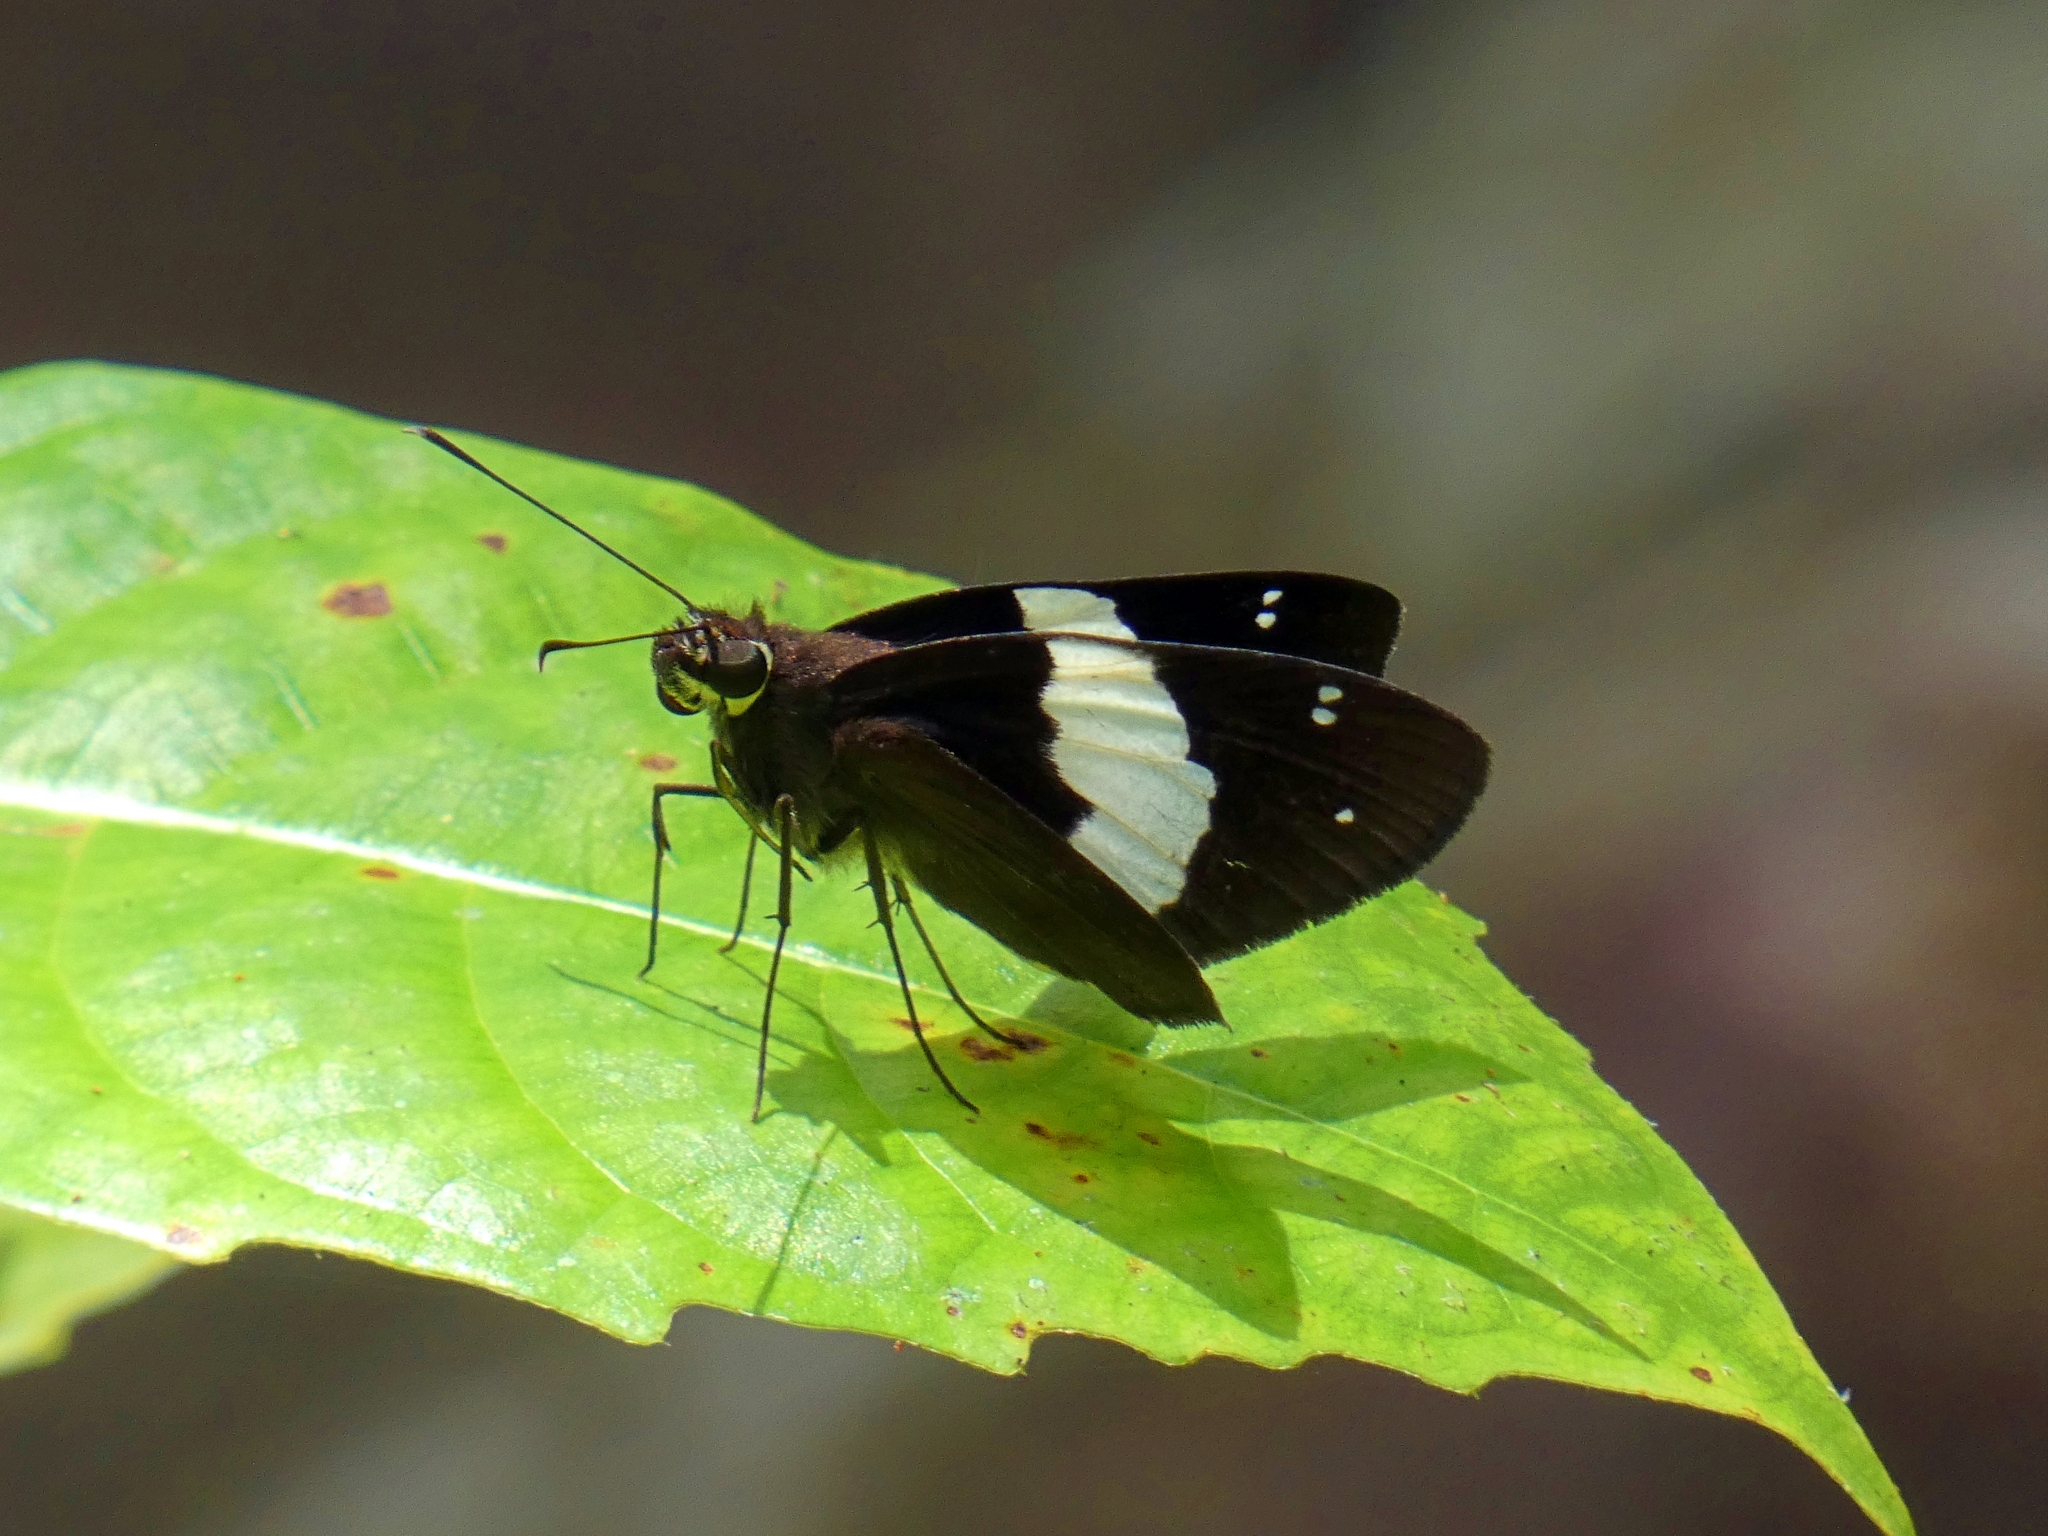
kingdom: Animalia
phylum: Arthropoda
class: Insecta
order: Lepidoptera
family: Hesperiidae
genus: Notocrypta
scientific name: Notocrypta waigensis
